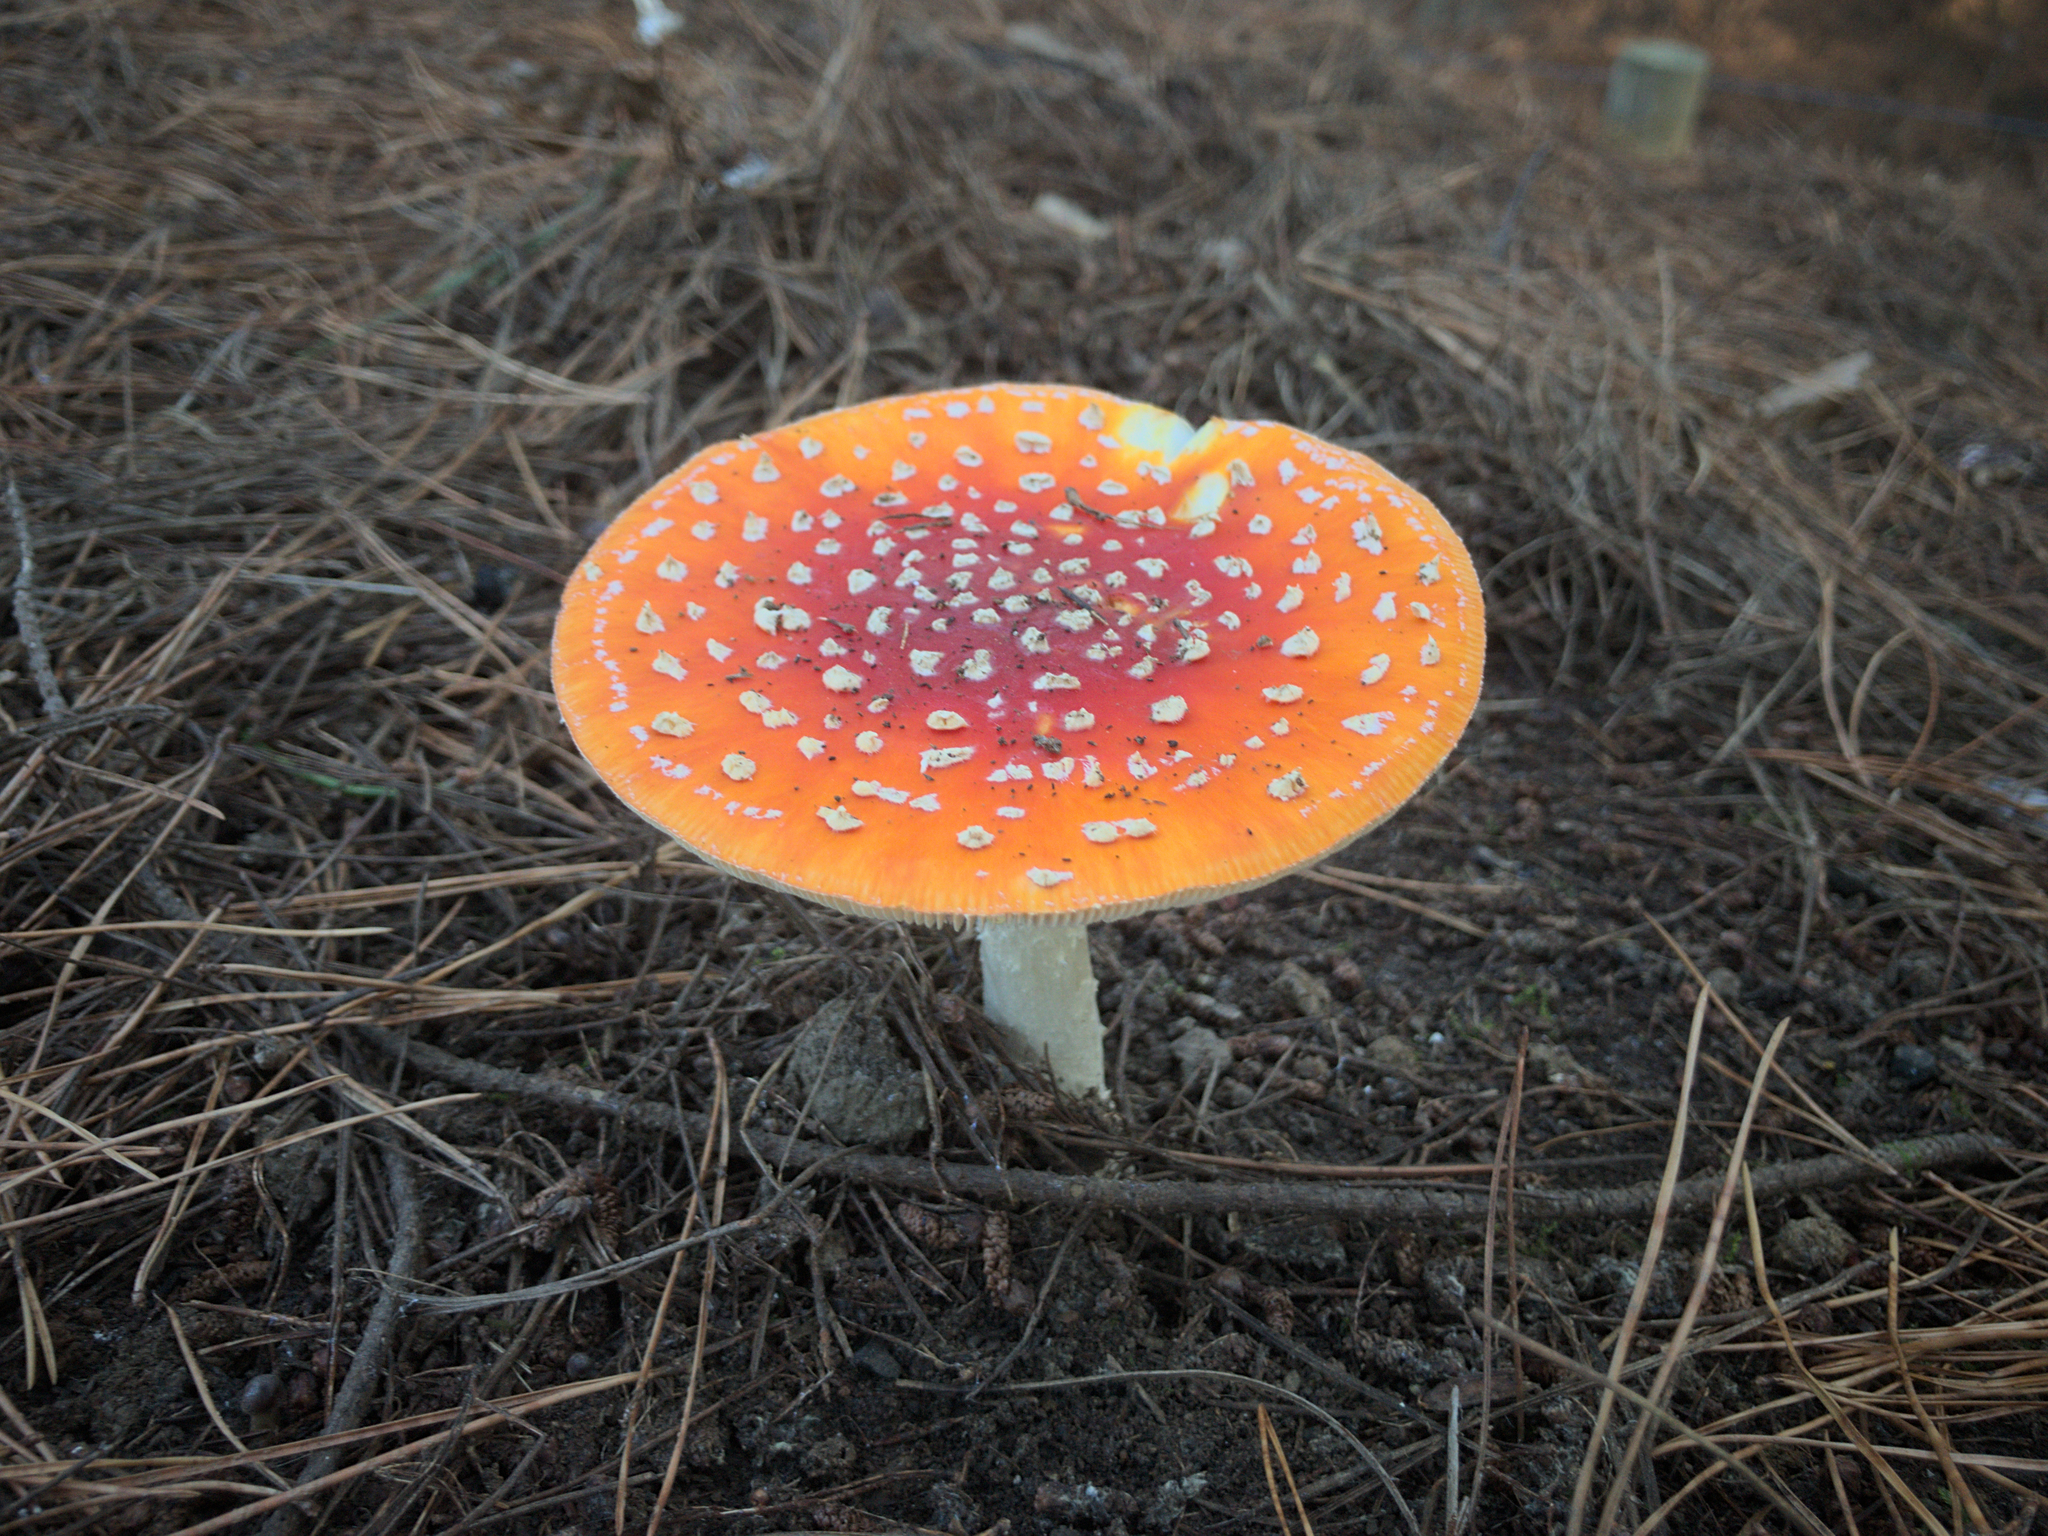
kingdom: Fungi
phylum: Basidiomycota
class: Agaricomycetes
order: Agaricales
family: Amanitaceae
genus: Amanita
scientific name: Amanita muscaria
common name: Fly agaric
